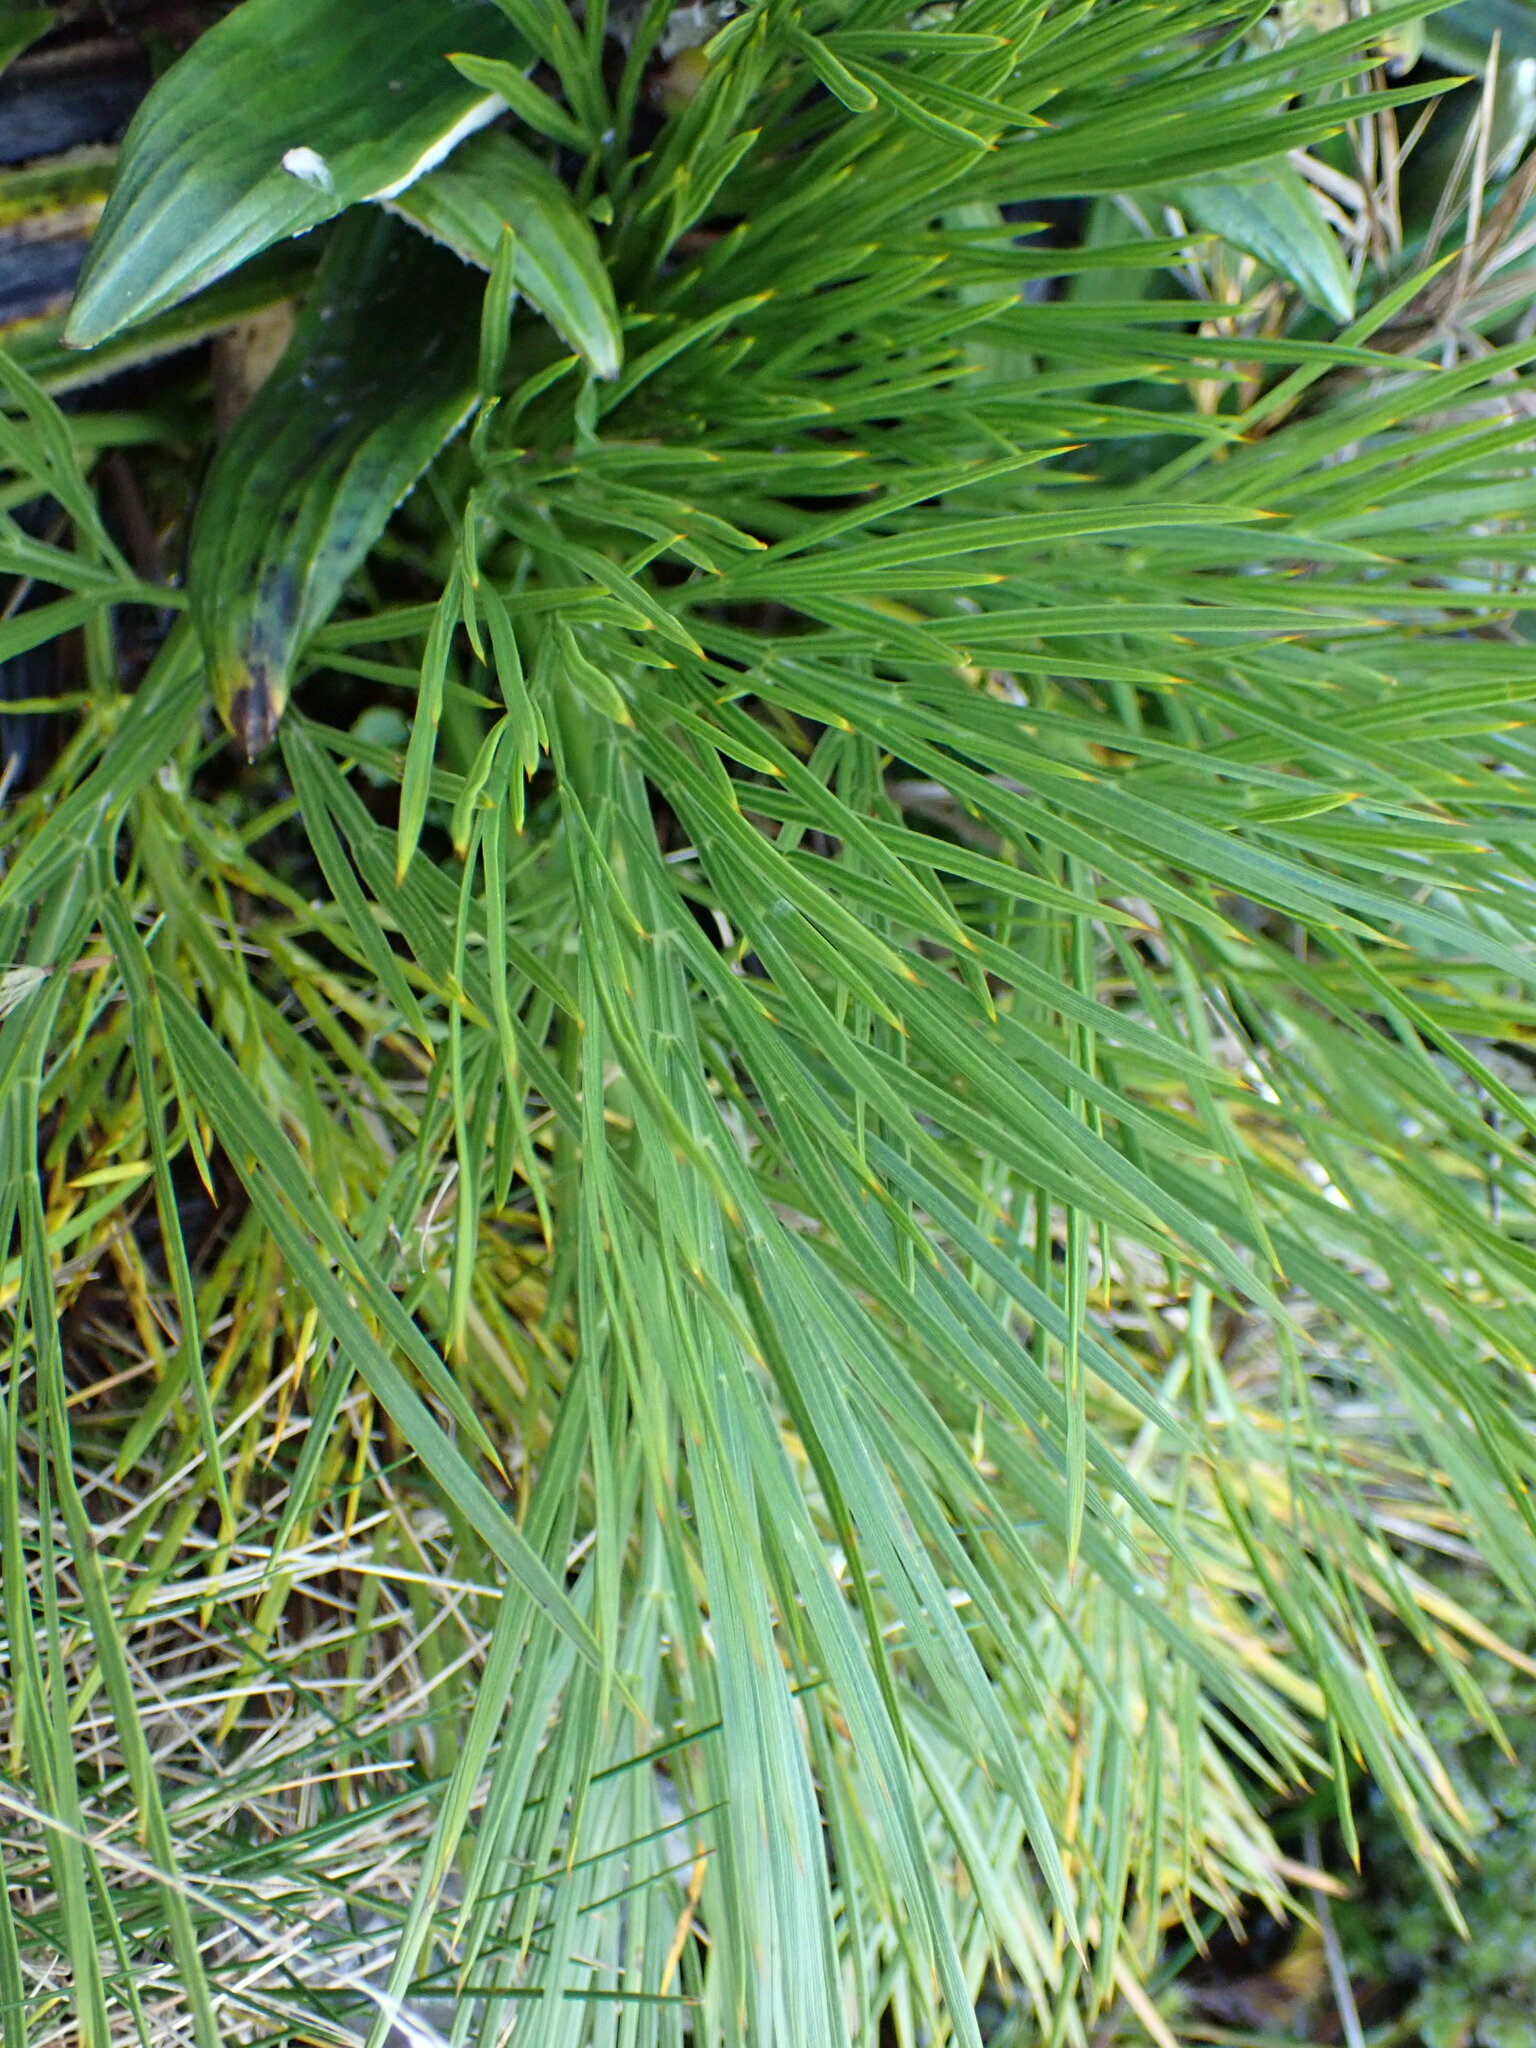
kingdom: Plantae
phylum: Tracheophyta
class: Magnoliopsida
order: Apiales
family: Apiaceae
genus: Aciphylla
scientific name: Aciphylla
